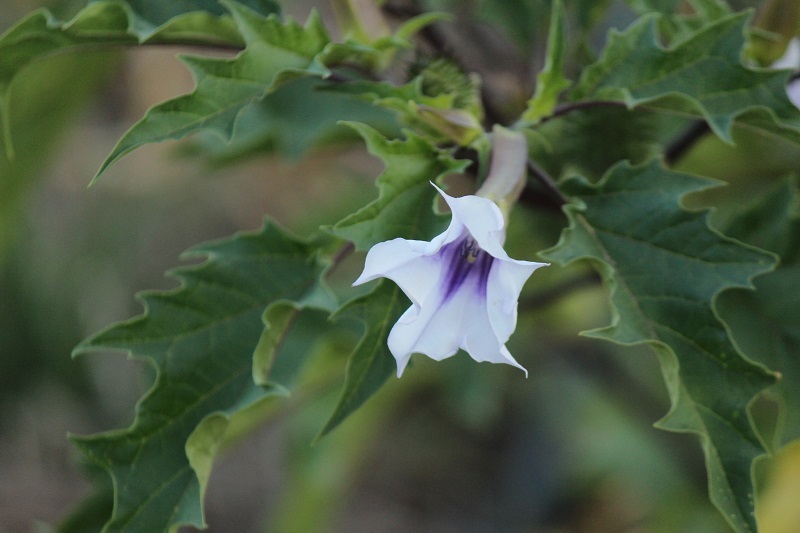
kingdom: Plantae
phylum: Tracheophyta
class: Magnoliopsida
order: Solanales
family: Solanaceae
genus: Datura
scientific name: Datura stramonium
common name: Thorn-apple
